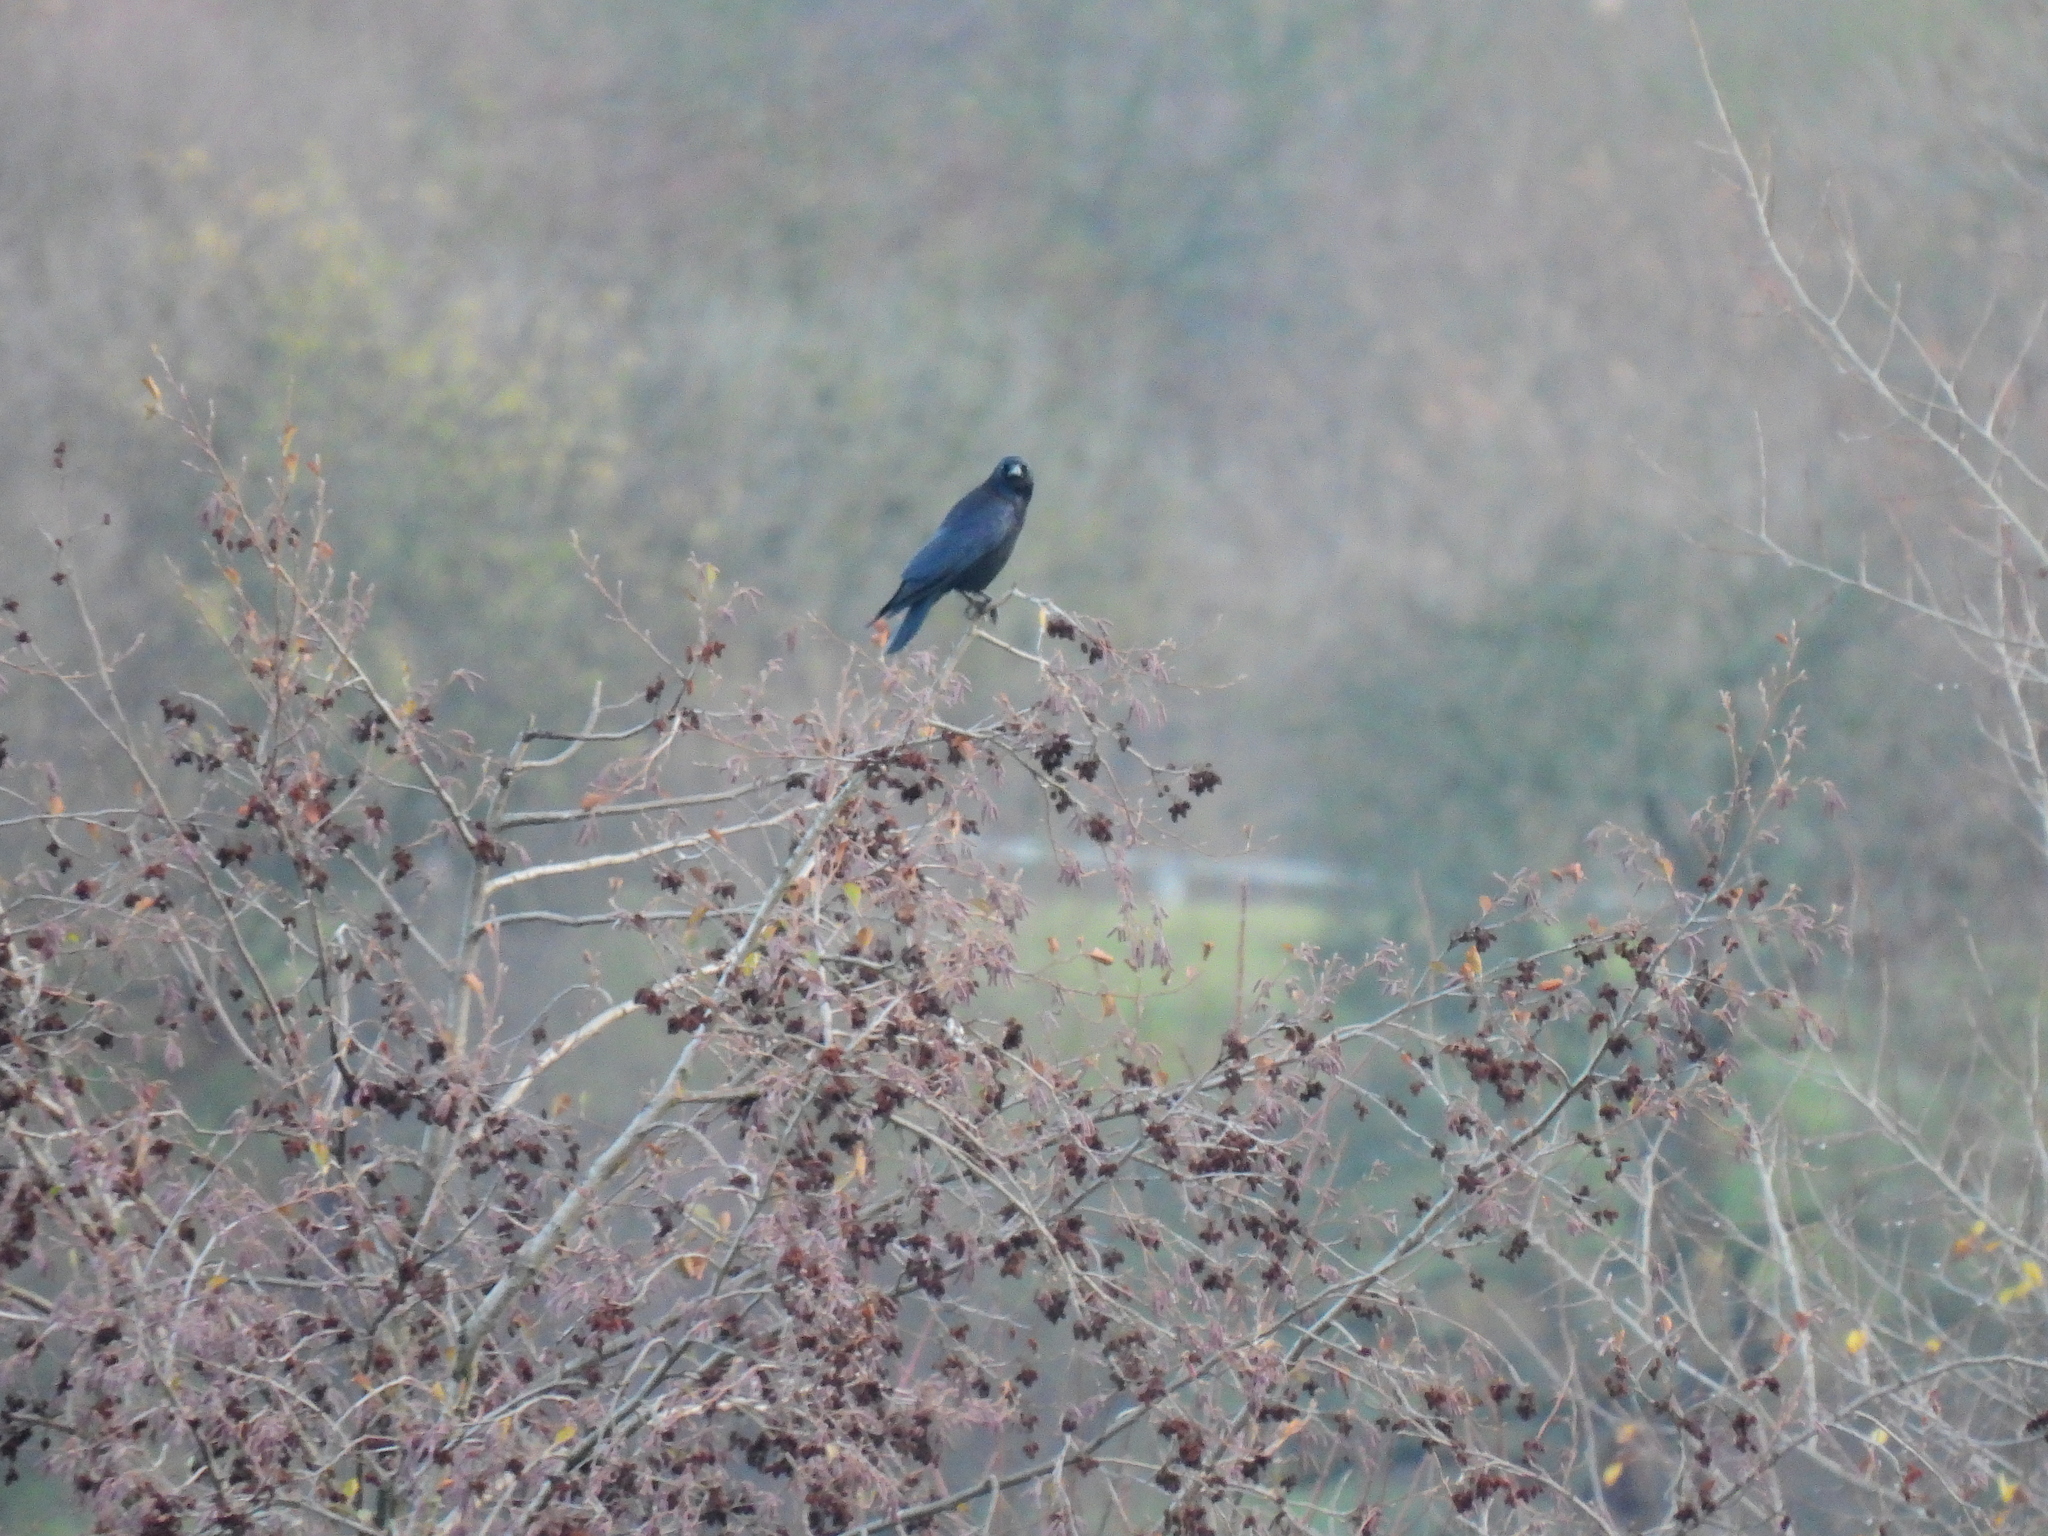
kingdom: Animalia
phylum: Chordata
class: Aves
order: Passeriformes
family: Corvidae
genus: Corvus
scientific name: Corvus corone
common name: Carrion crow
